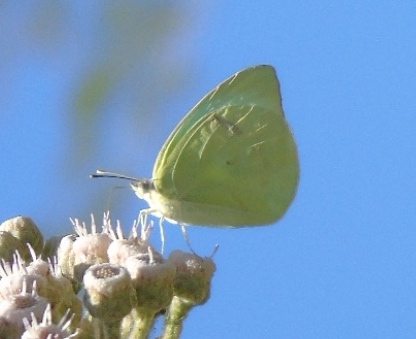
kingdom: Animalia
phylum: Arthropoda
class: Insecta
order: Lepidoptera
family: Pieridae
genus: Kricogonia
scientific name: Kricogonia lyside
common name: Guayacan sulphur,
